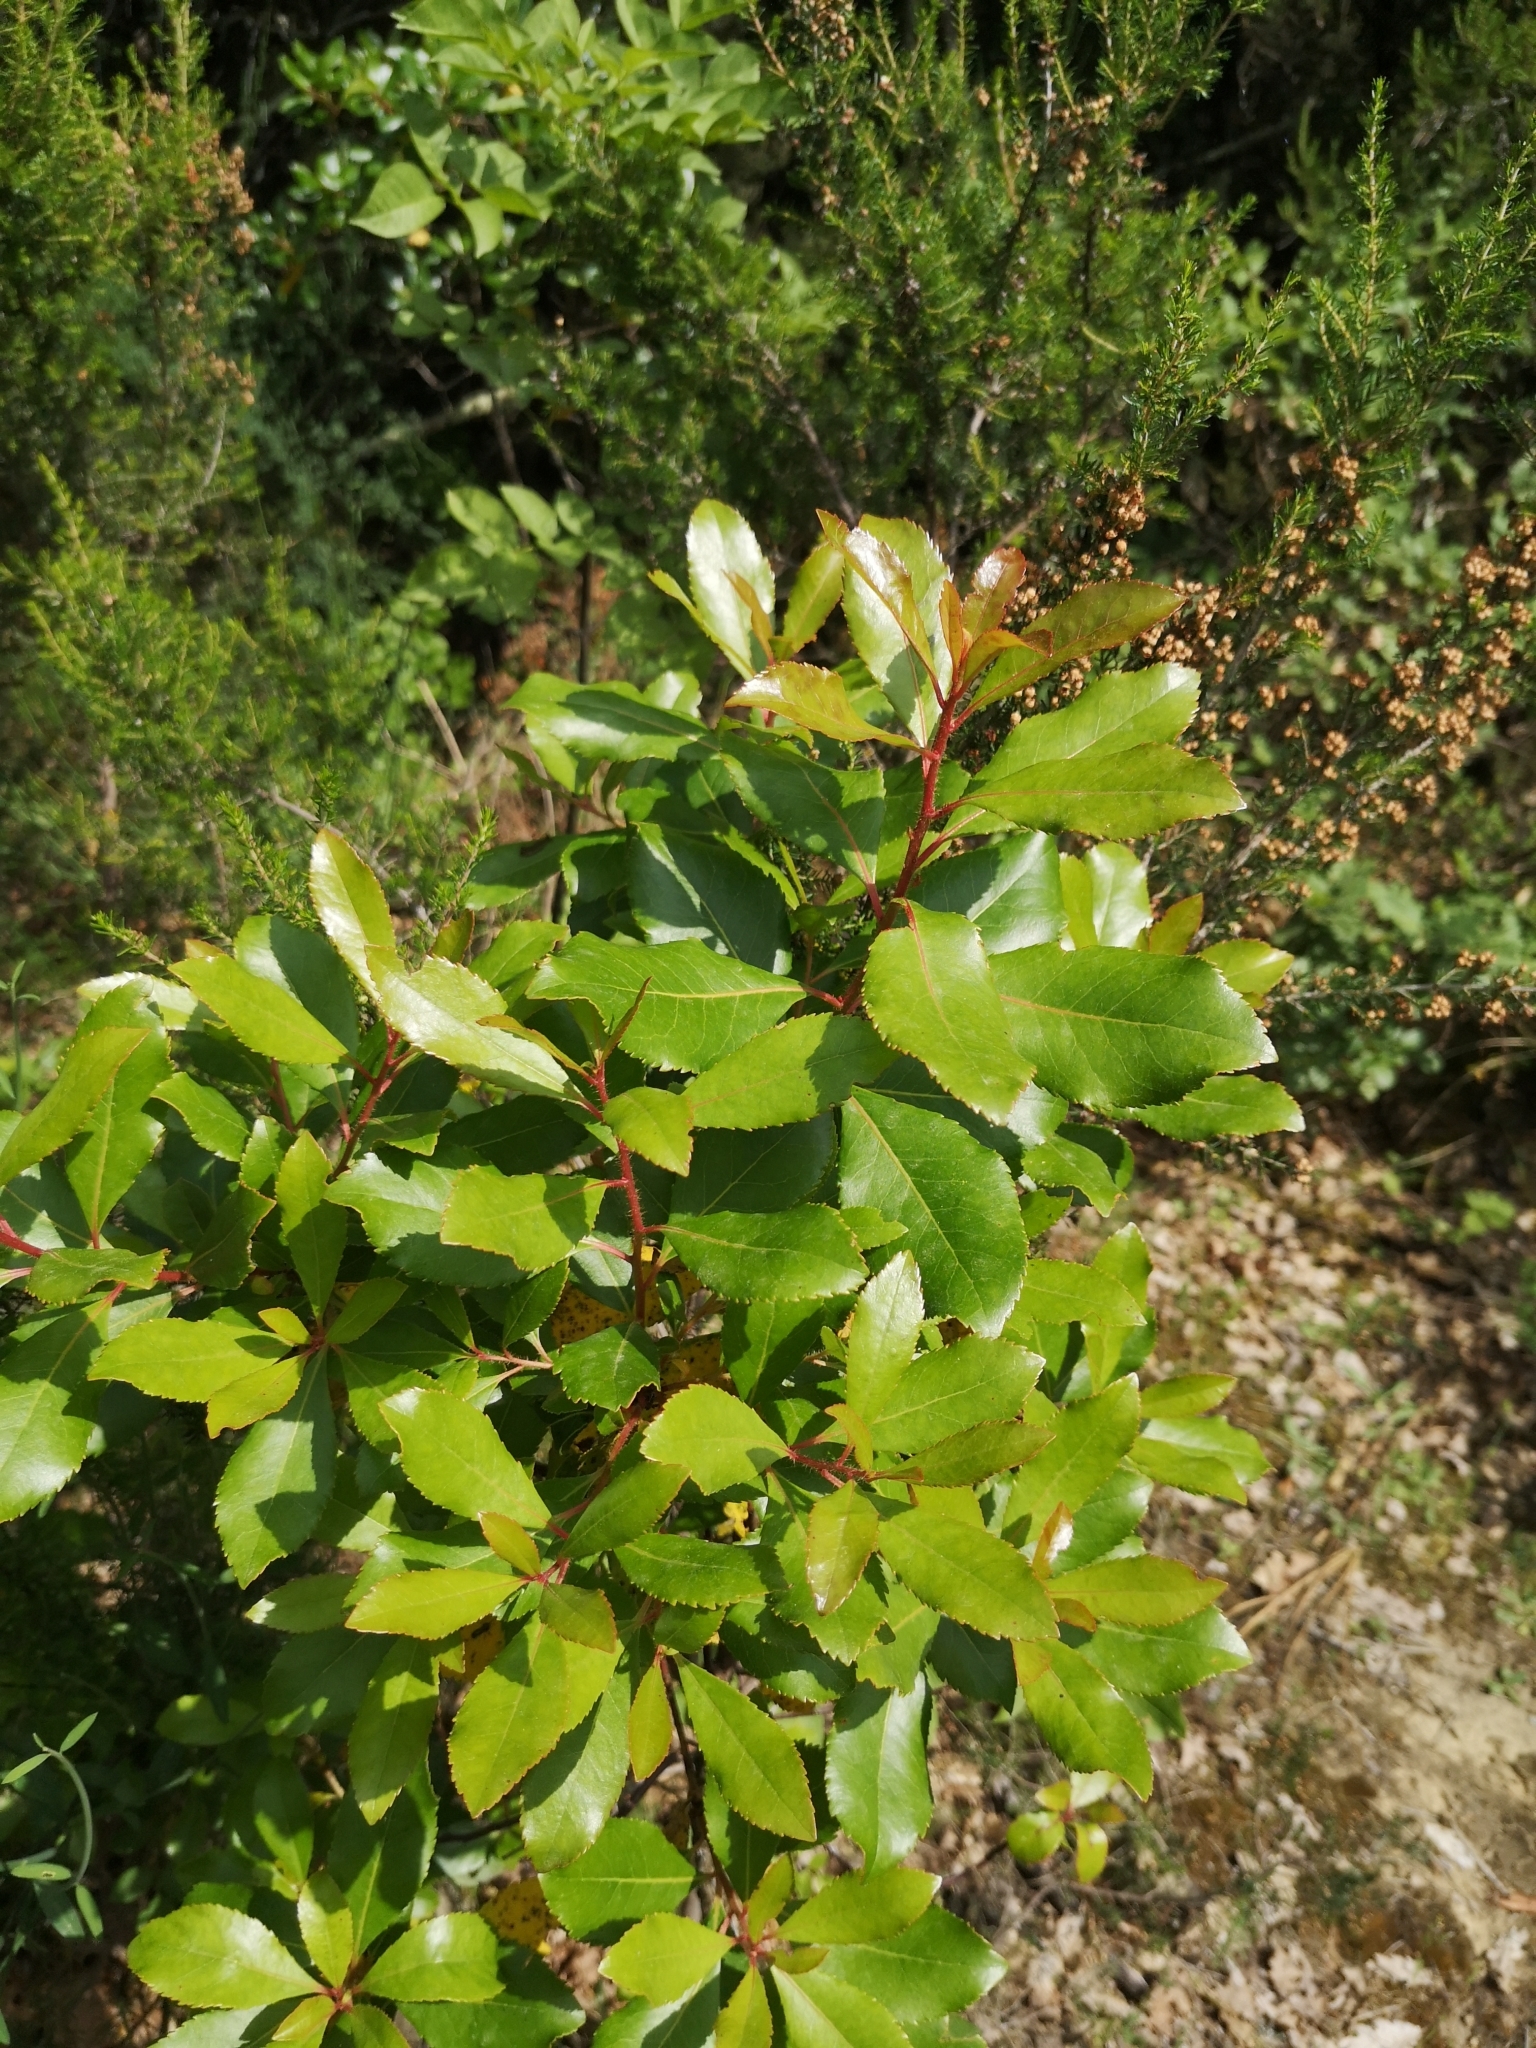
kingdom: Plantae
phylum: Tracheophyta
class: Magnoliopsida
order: Ericales
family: Ericaceae
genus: Arbutus
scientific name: Arbutus unedo
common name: Strawberry-tree
